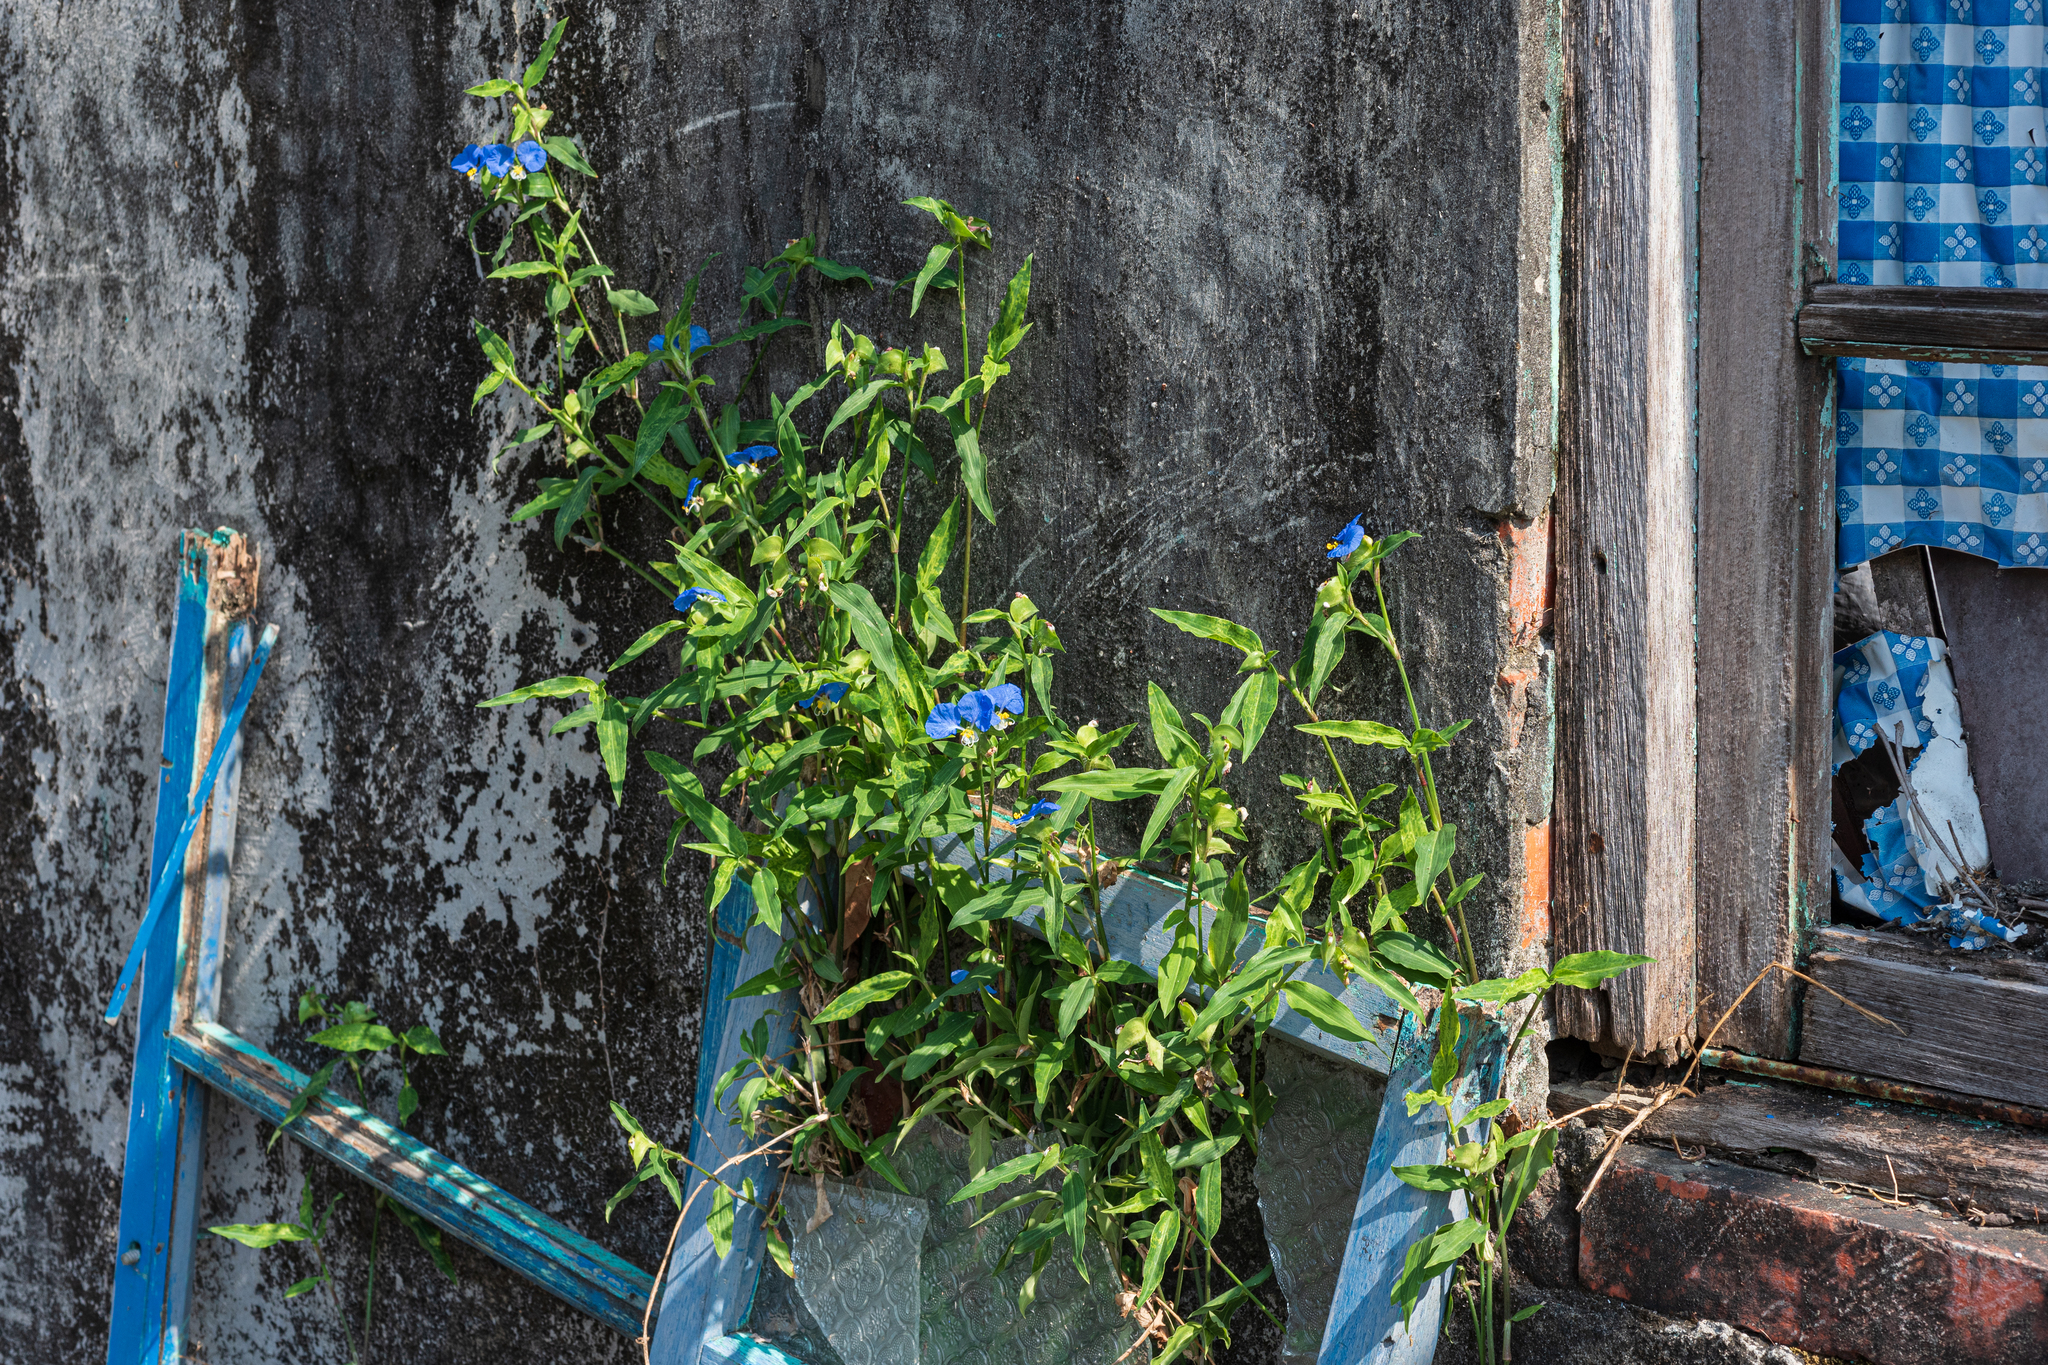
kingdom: Plantae
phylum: Tracheophyta
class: Liliopsida
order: Commelinales
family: Commelinaceae
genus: Commelina
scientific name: Commelina erecta
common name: Blousel blommetjie
